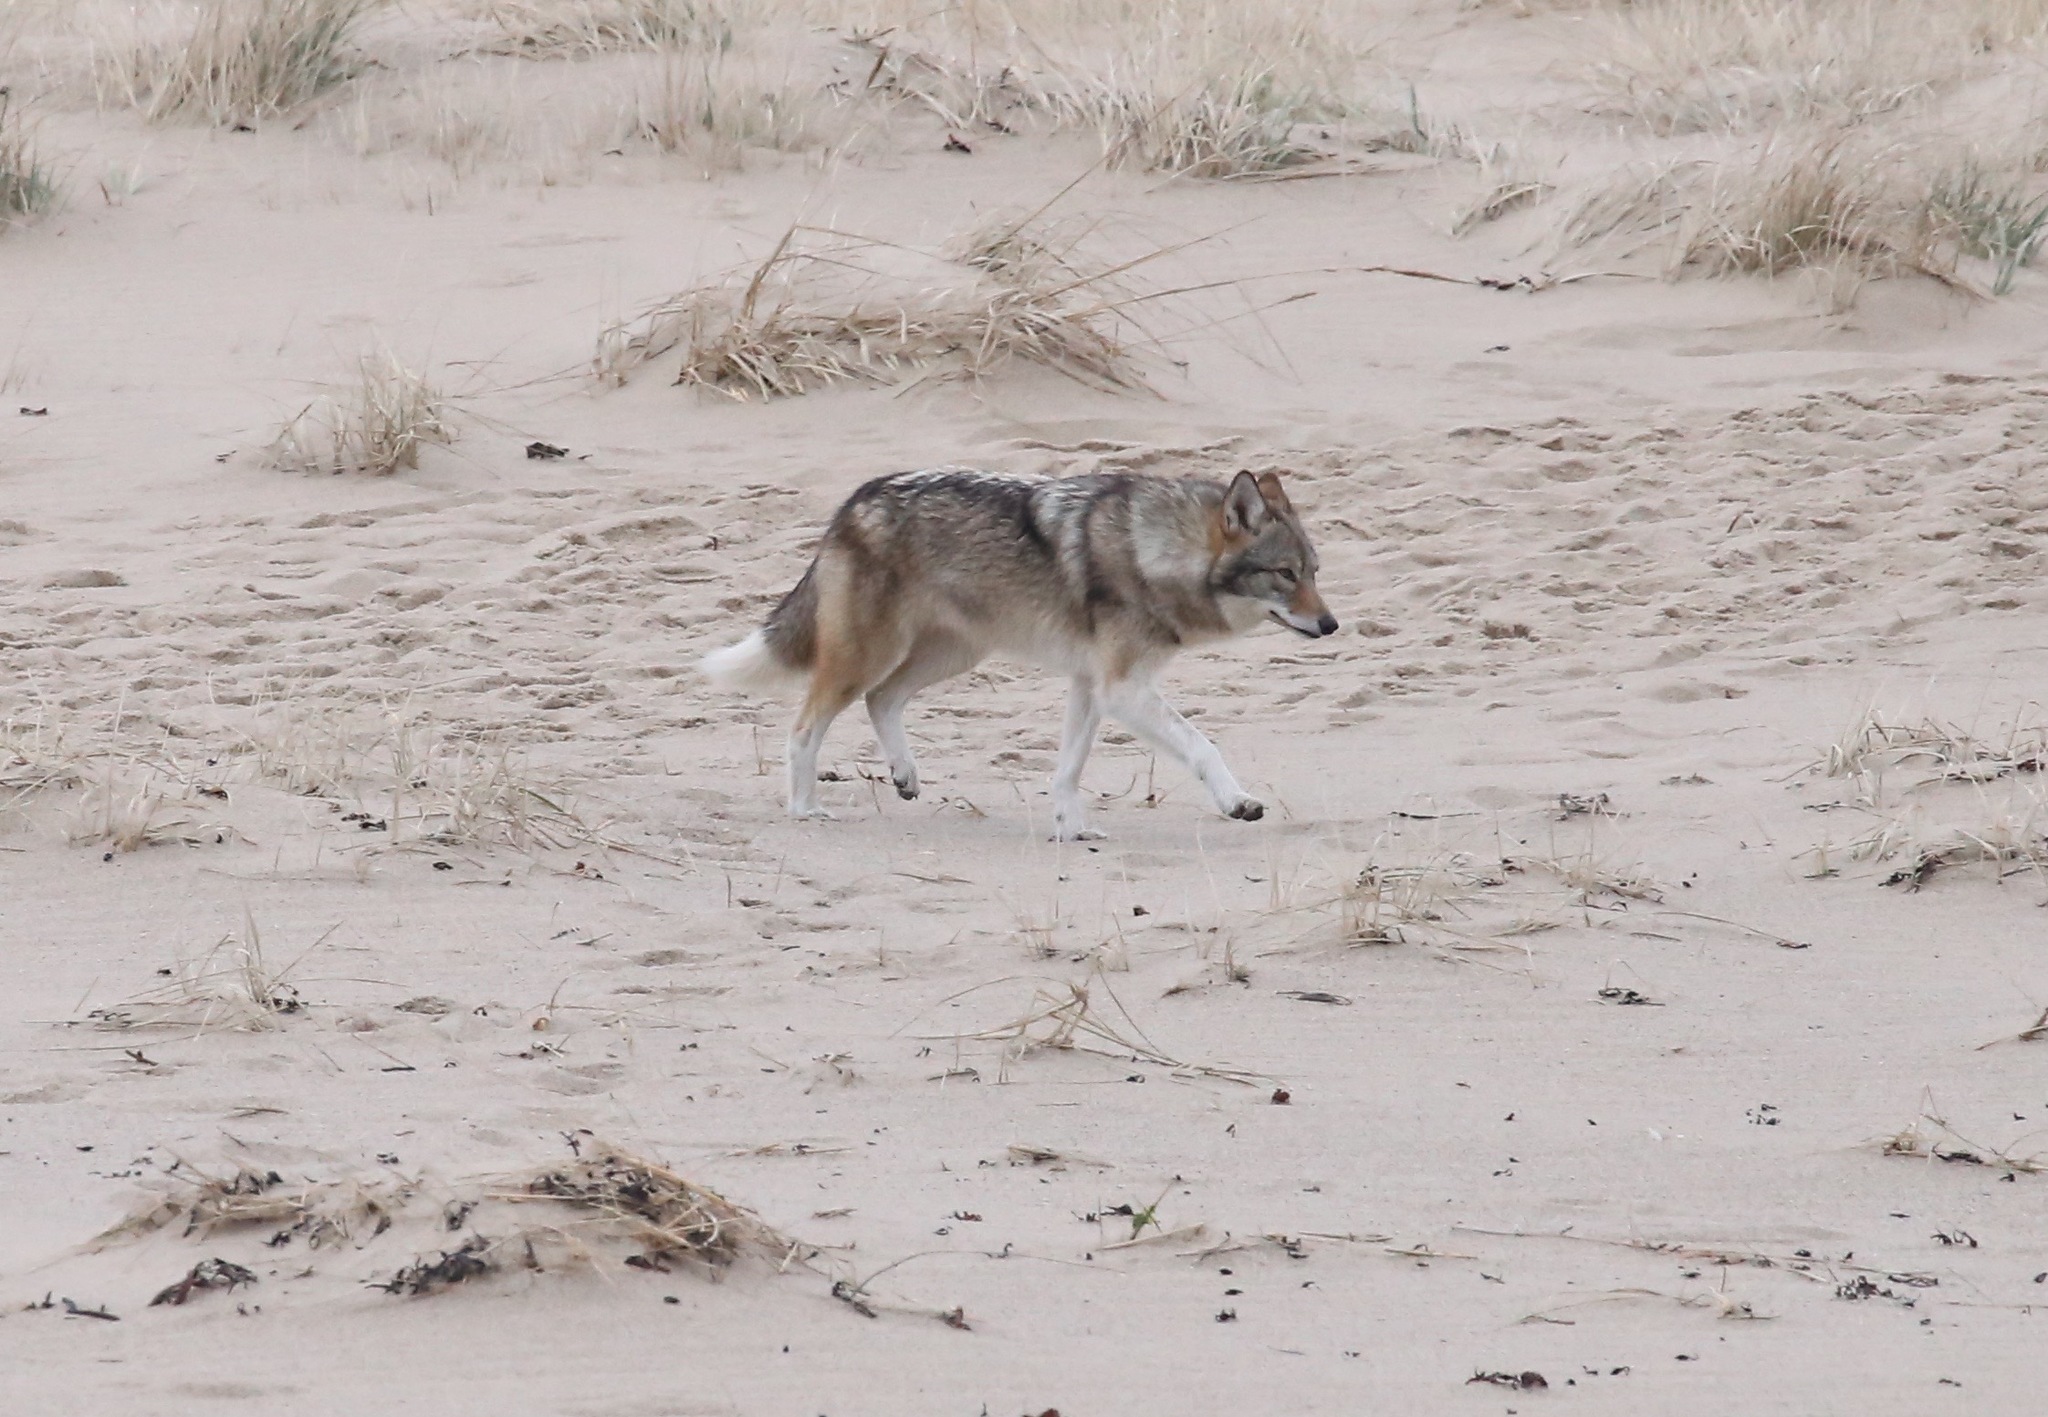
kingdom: Animalia
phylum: Chordata
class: Mammalia
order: Carnivora
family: Canidae
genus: Canis
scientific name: Canis latrans
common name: Coyote
